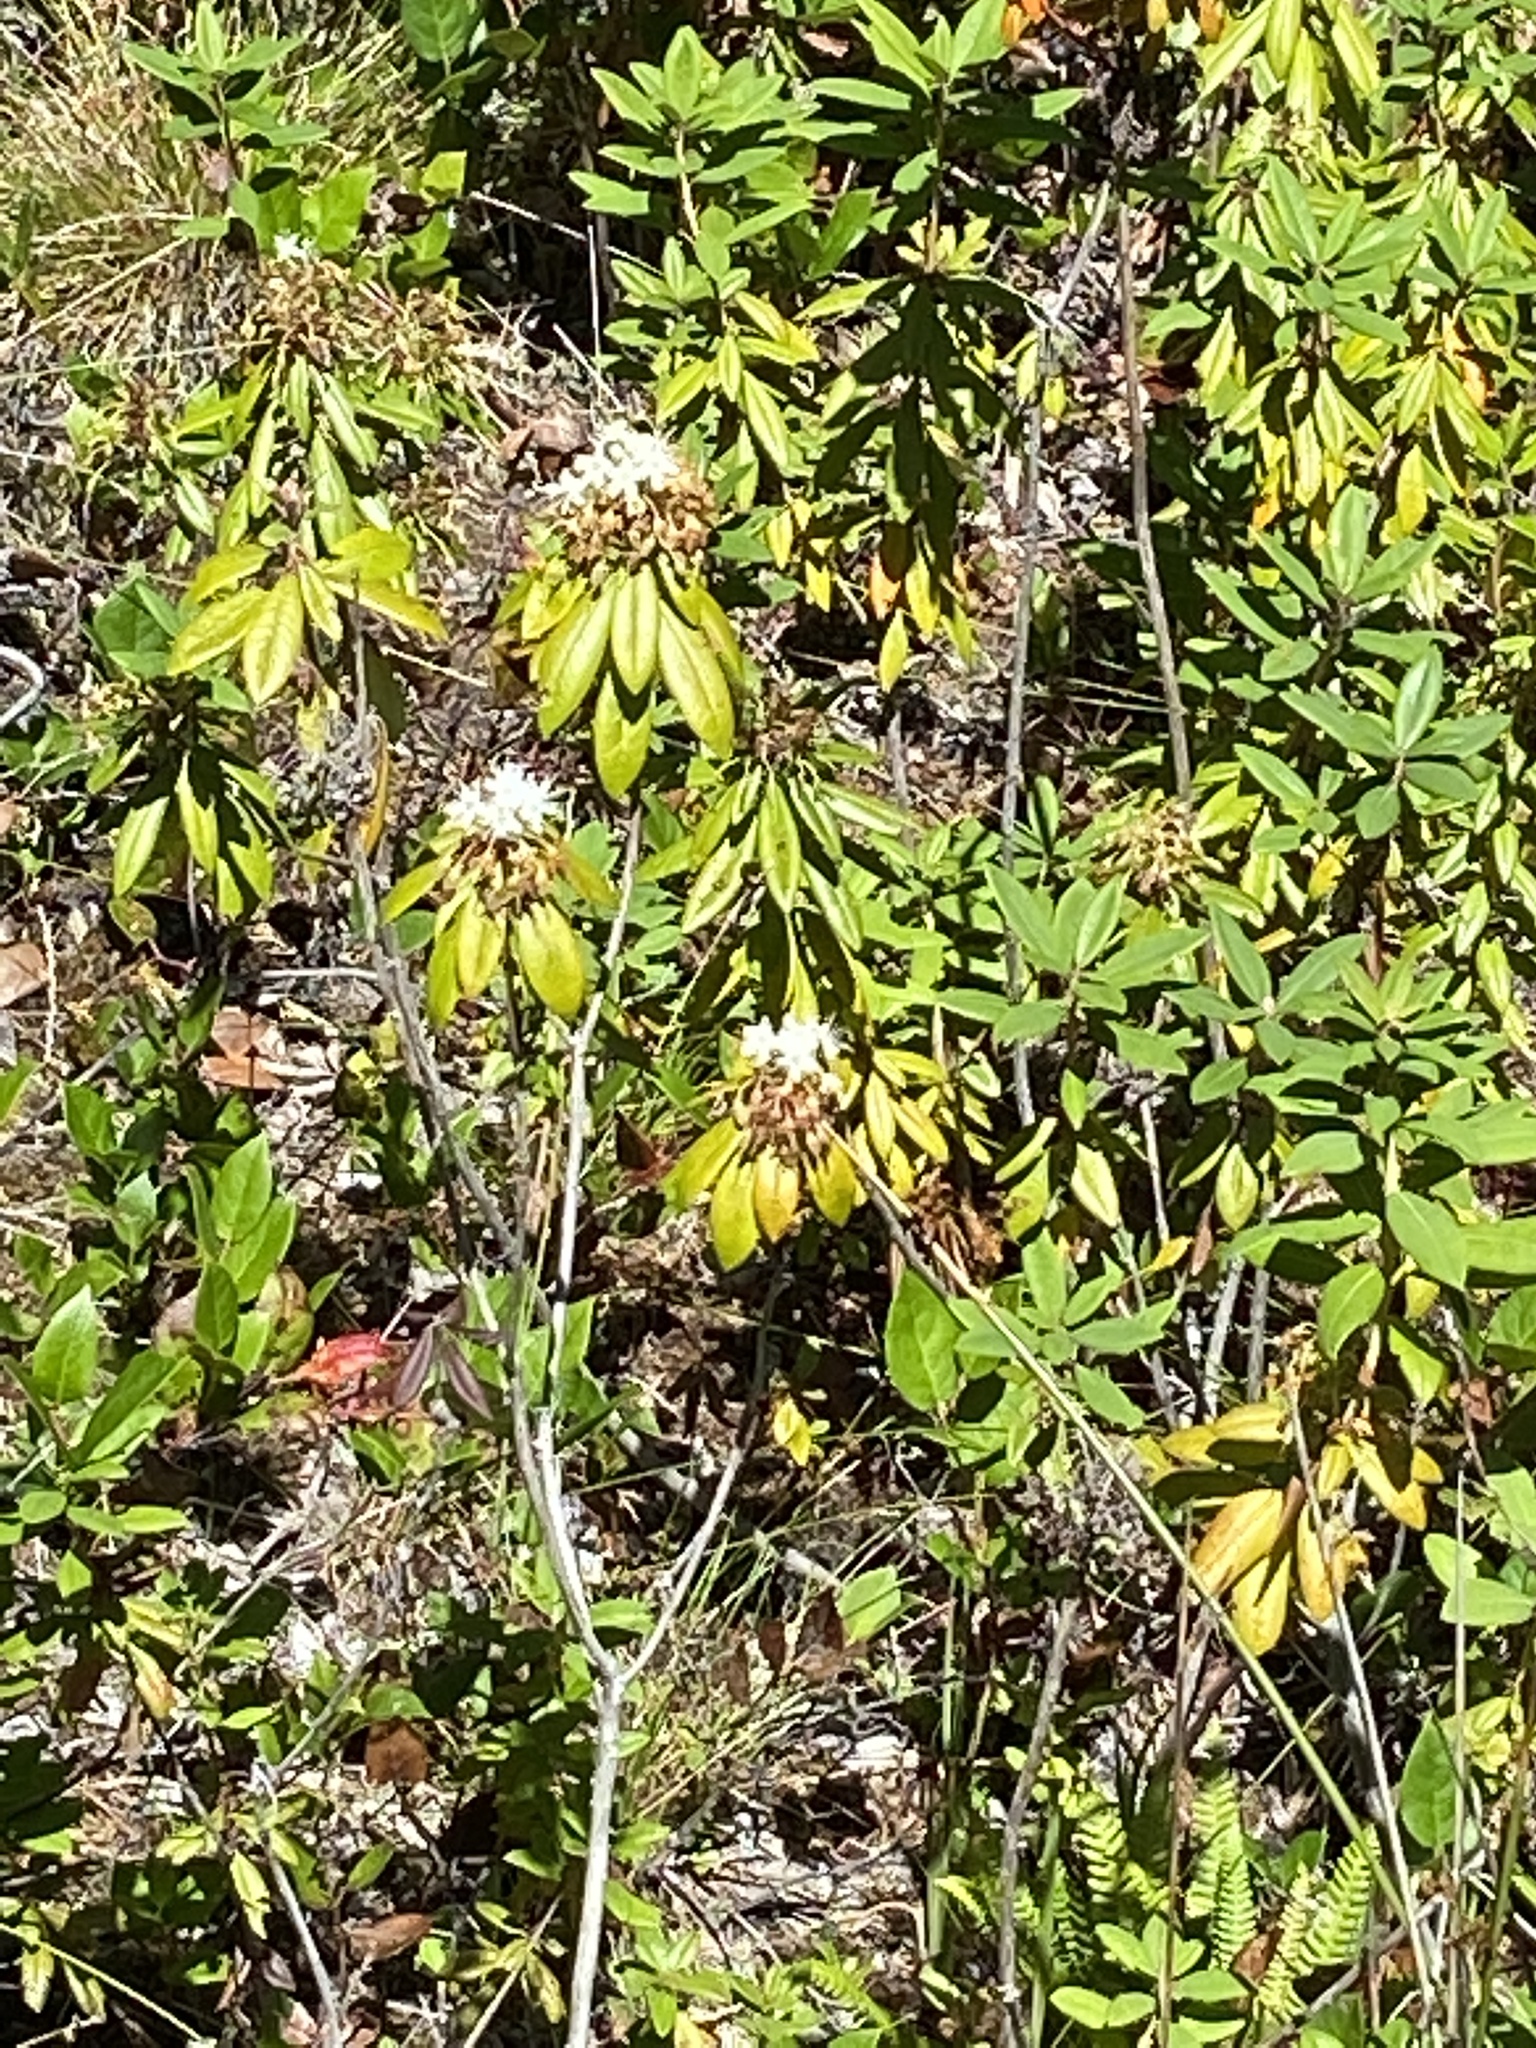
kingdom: Plantae
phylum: Tracheophyta
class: Magnoliopsida
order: Ericales
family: Ericaceae
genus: Rhododendron
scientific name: Rhododendron columbianum
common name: Western labrador tea
